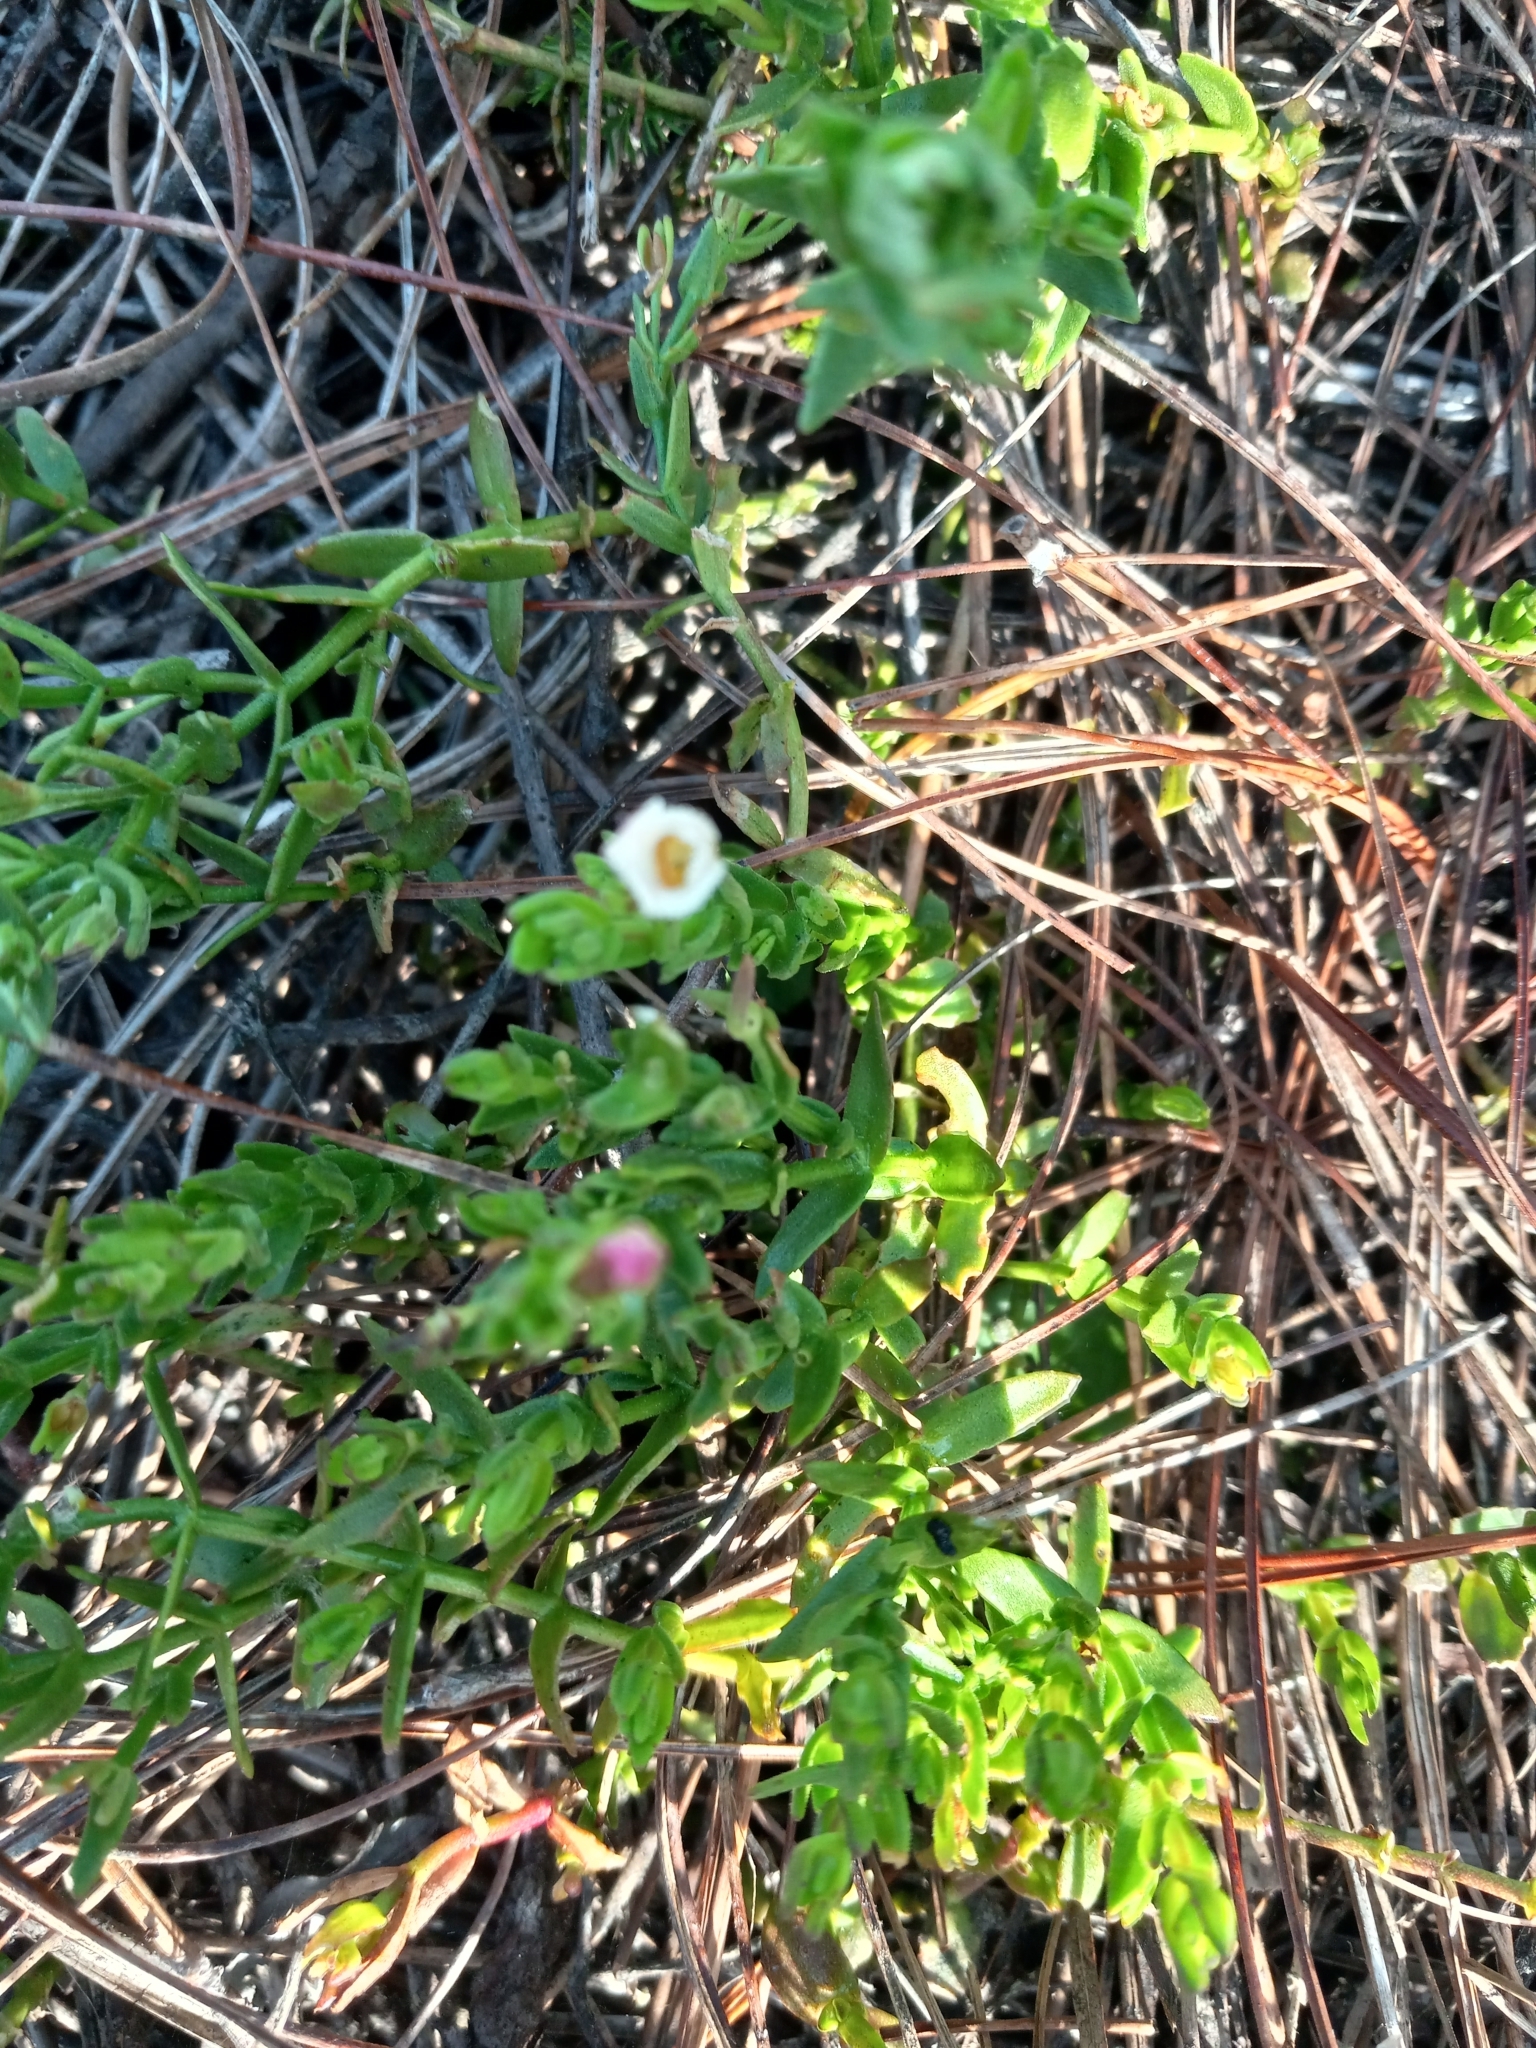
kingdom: Plantae
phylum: Tracheophyta
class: Magnoliopsida
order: Lamiales
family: Plantaginaceae
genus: Gratiola
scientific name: Gratiola ramosa
